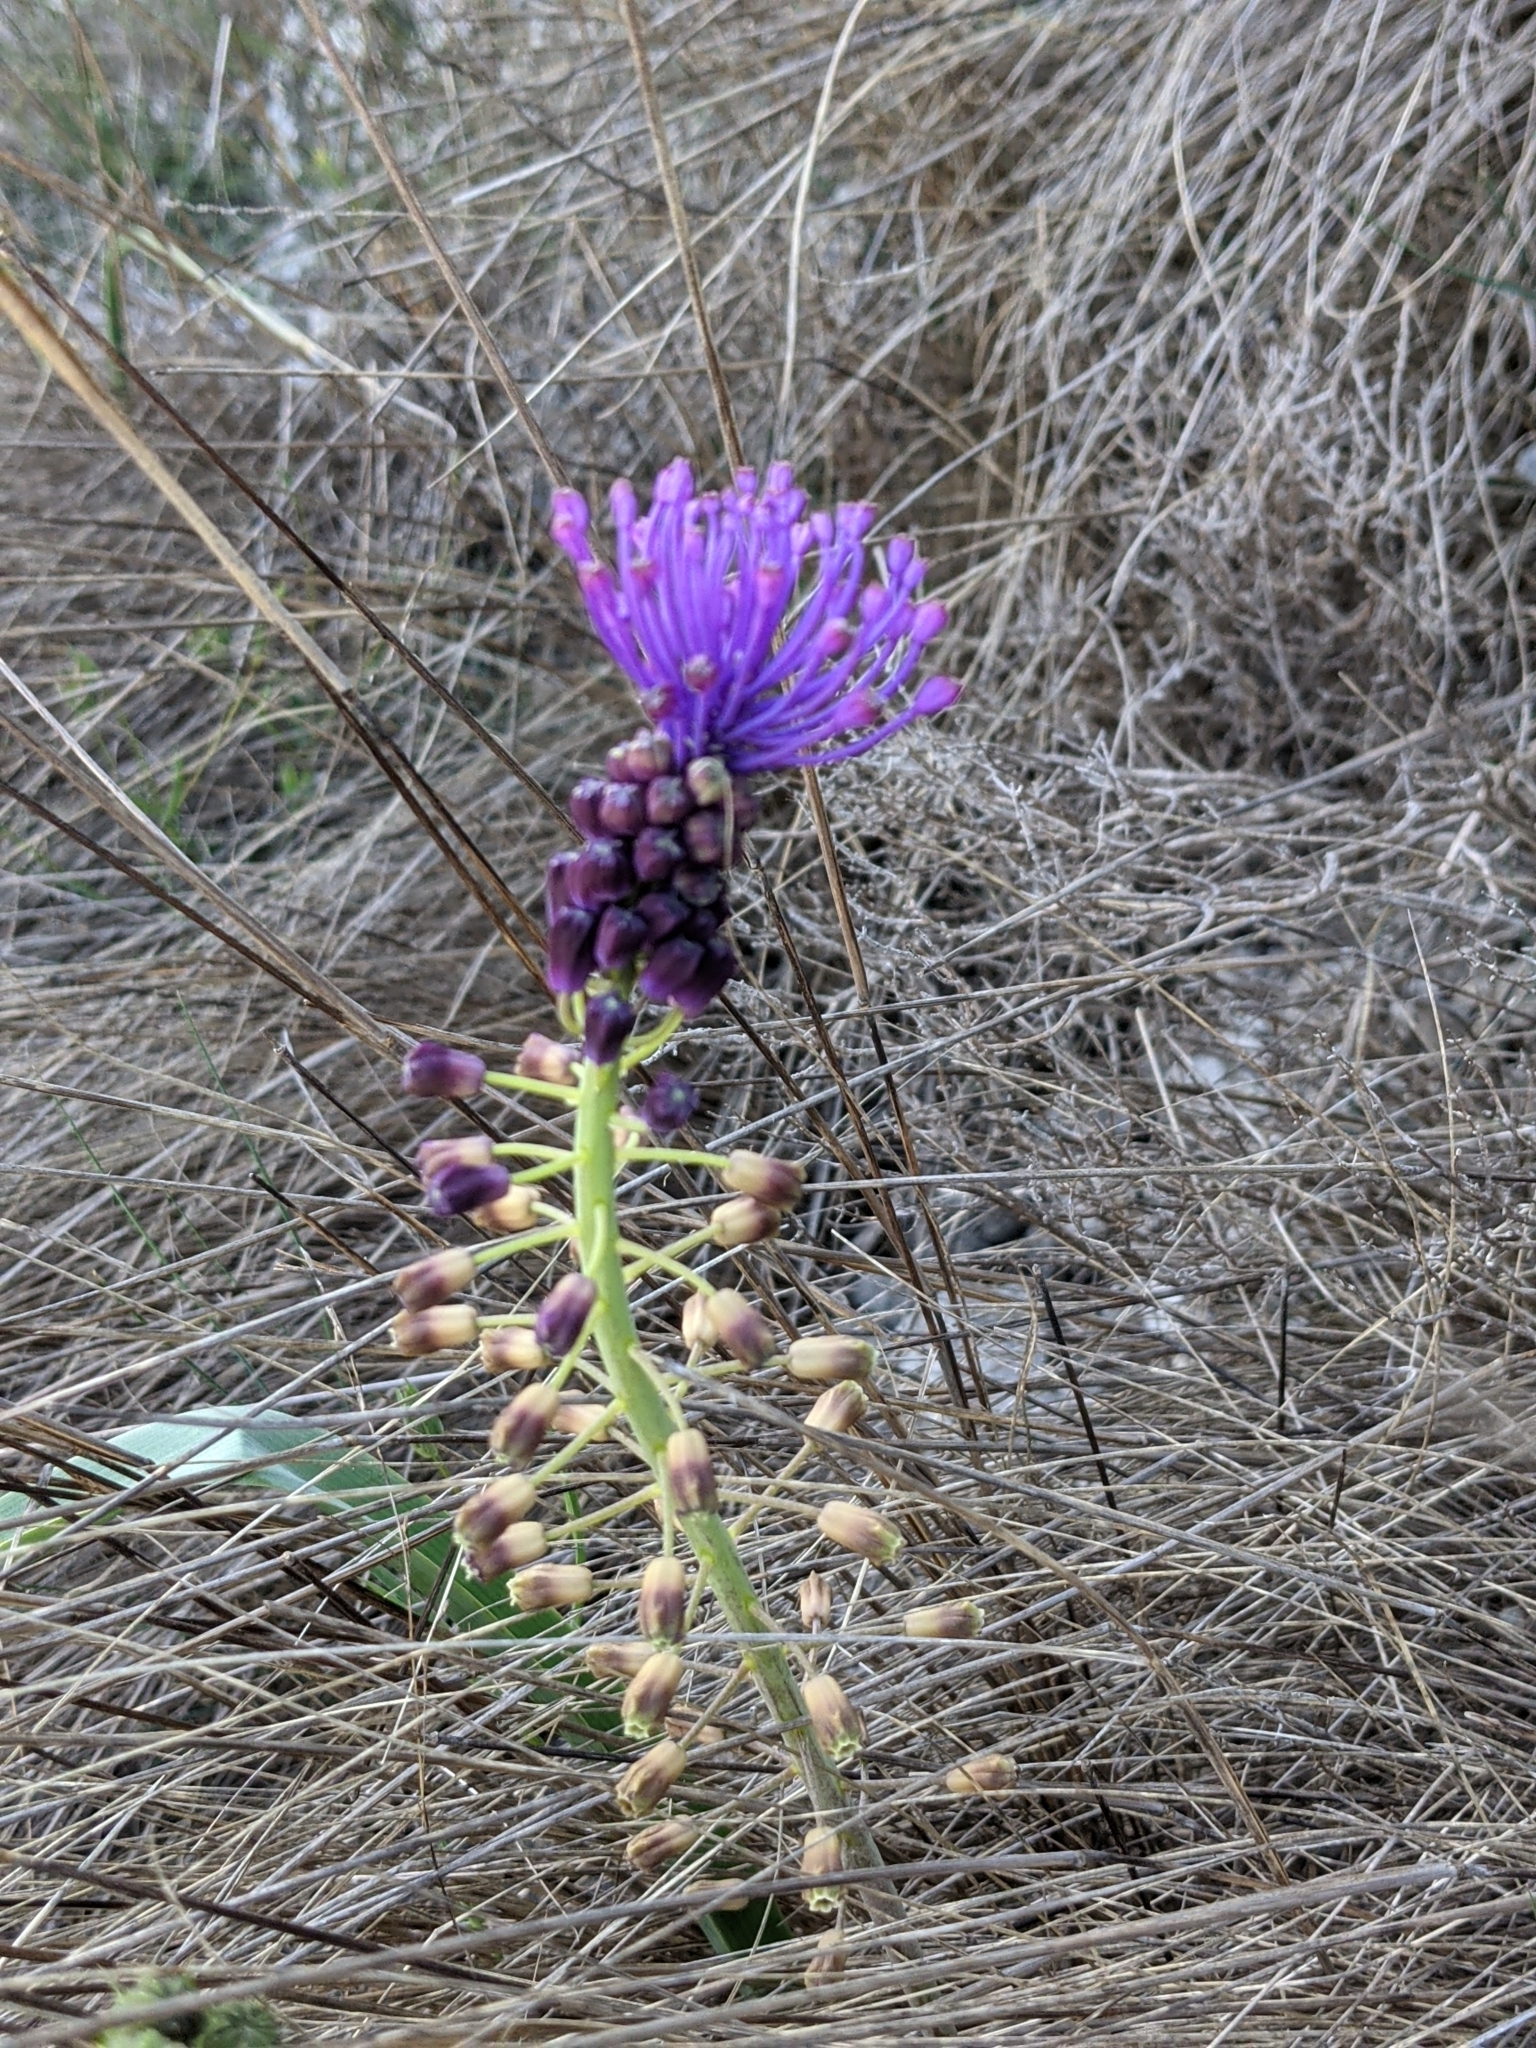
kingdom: Plantae
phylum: Tracheophyta
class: Liliopsida
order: Asparagales
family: Asparagaceae
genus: Muscari
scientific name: Muscari comosum
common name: Tassel hyacinth
